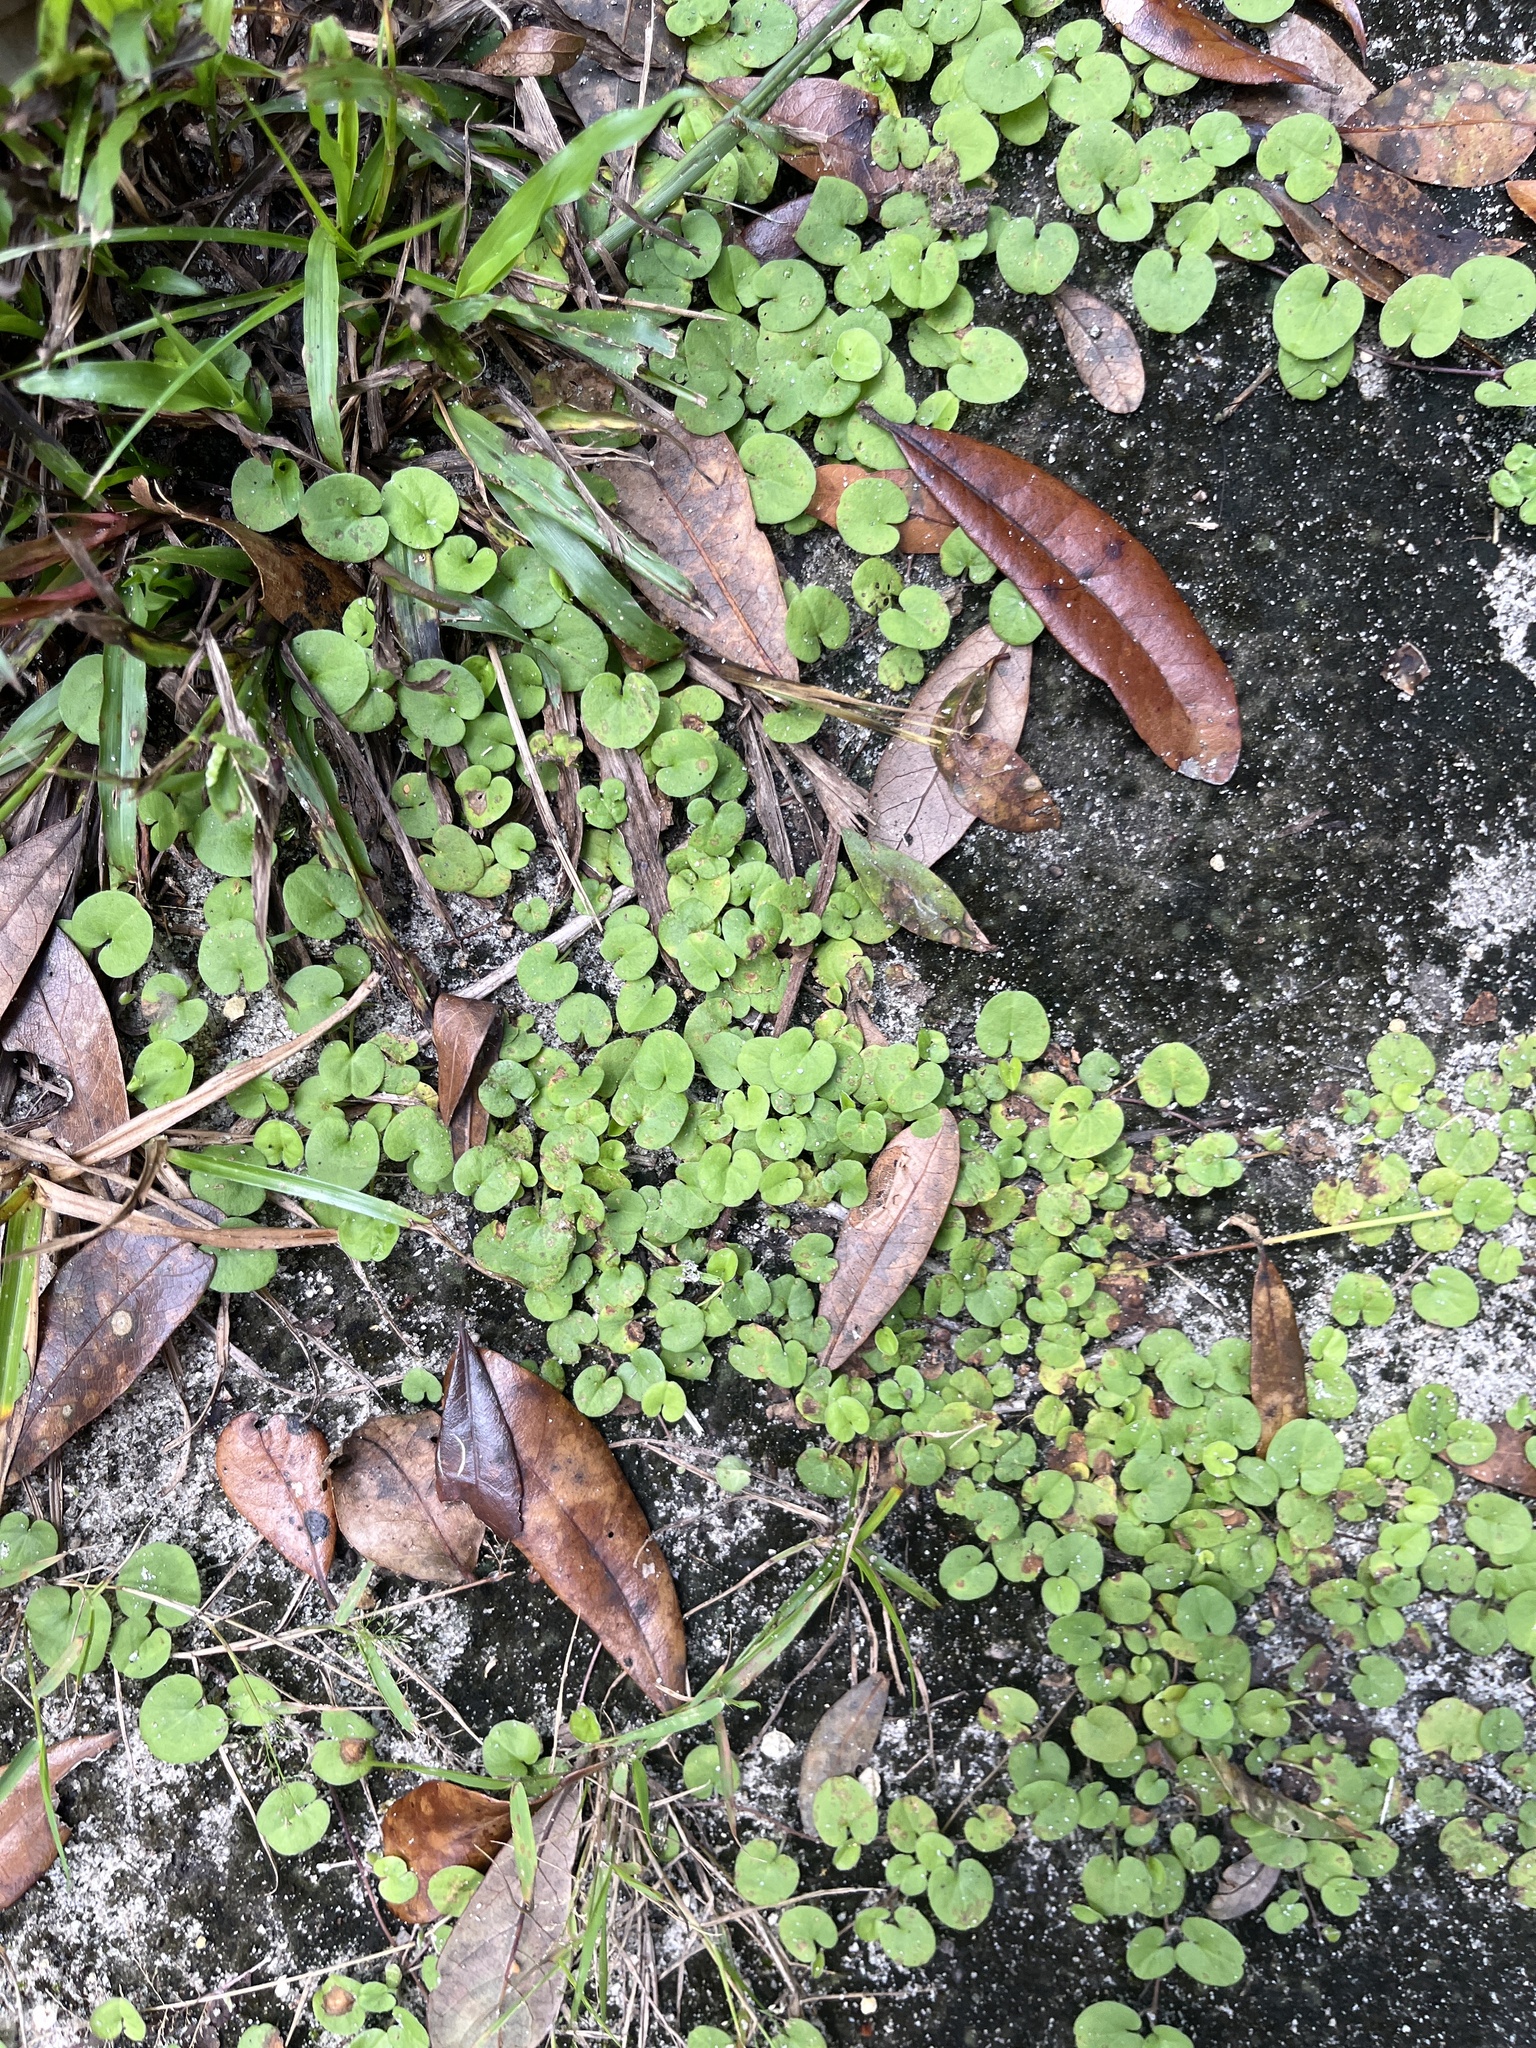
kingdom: Plantae
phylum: Tracheophyta
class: Magnoliopsida
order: Solanales
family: Convolvulaceae
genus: Dichondra
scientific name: Dichondra carolinensis
